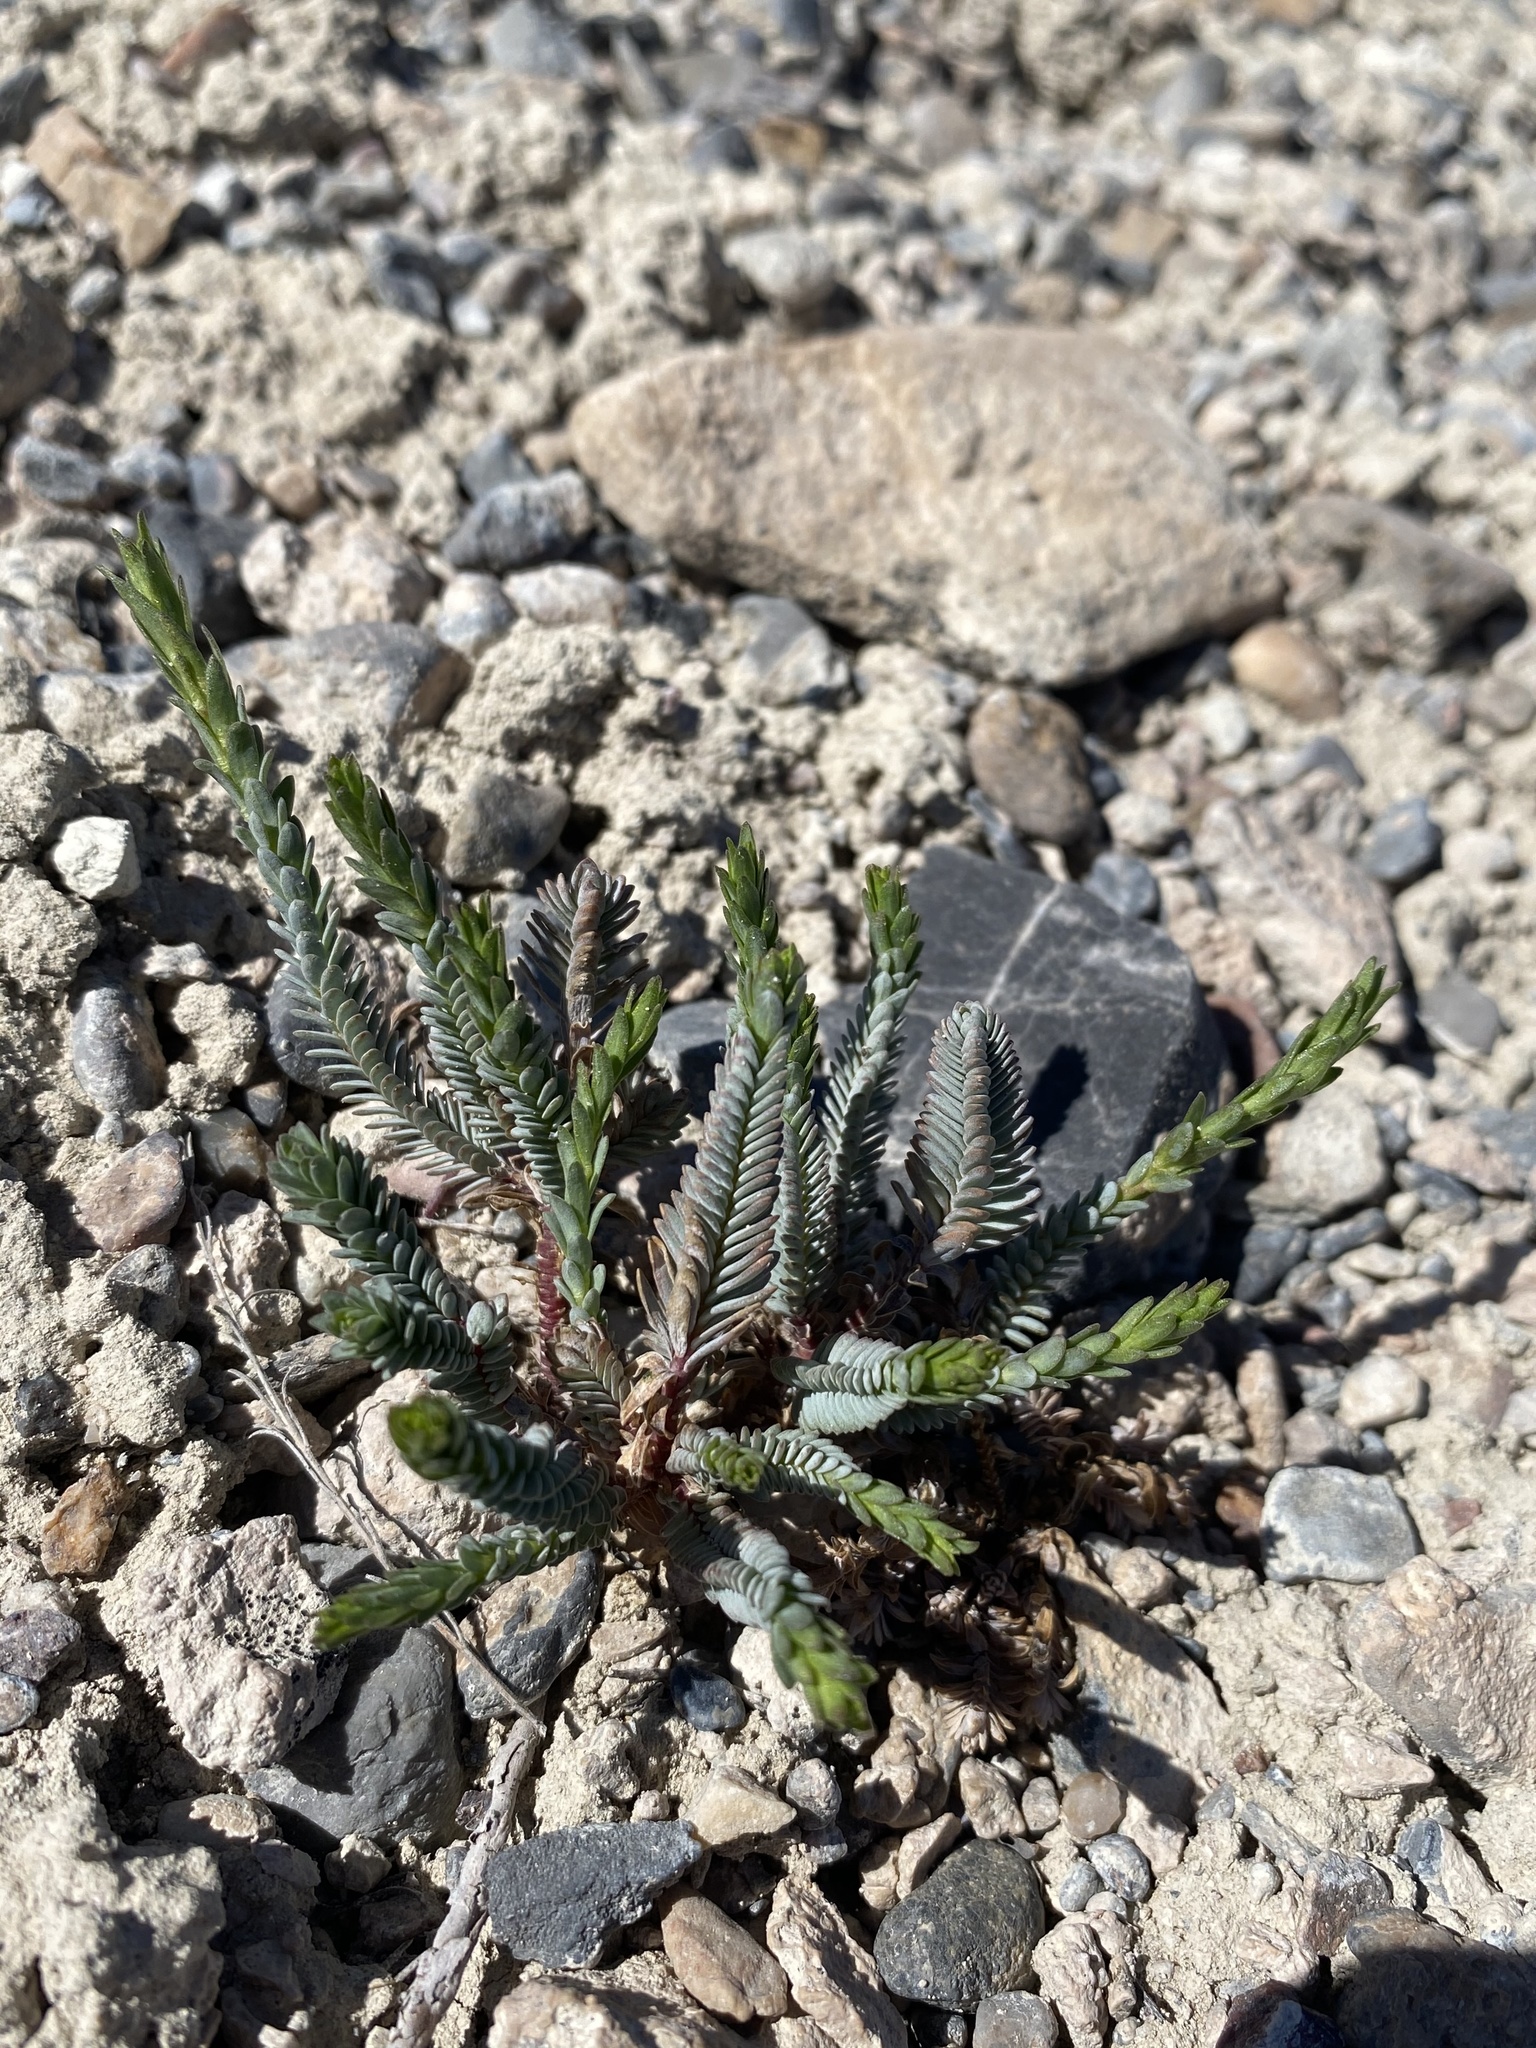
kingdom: Plantae
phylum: Tracheophyta
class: Magnoliopsida
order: Malpighiales
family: Linaceae
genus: Linum
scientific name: Linum kingii
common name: King's yellow flax
